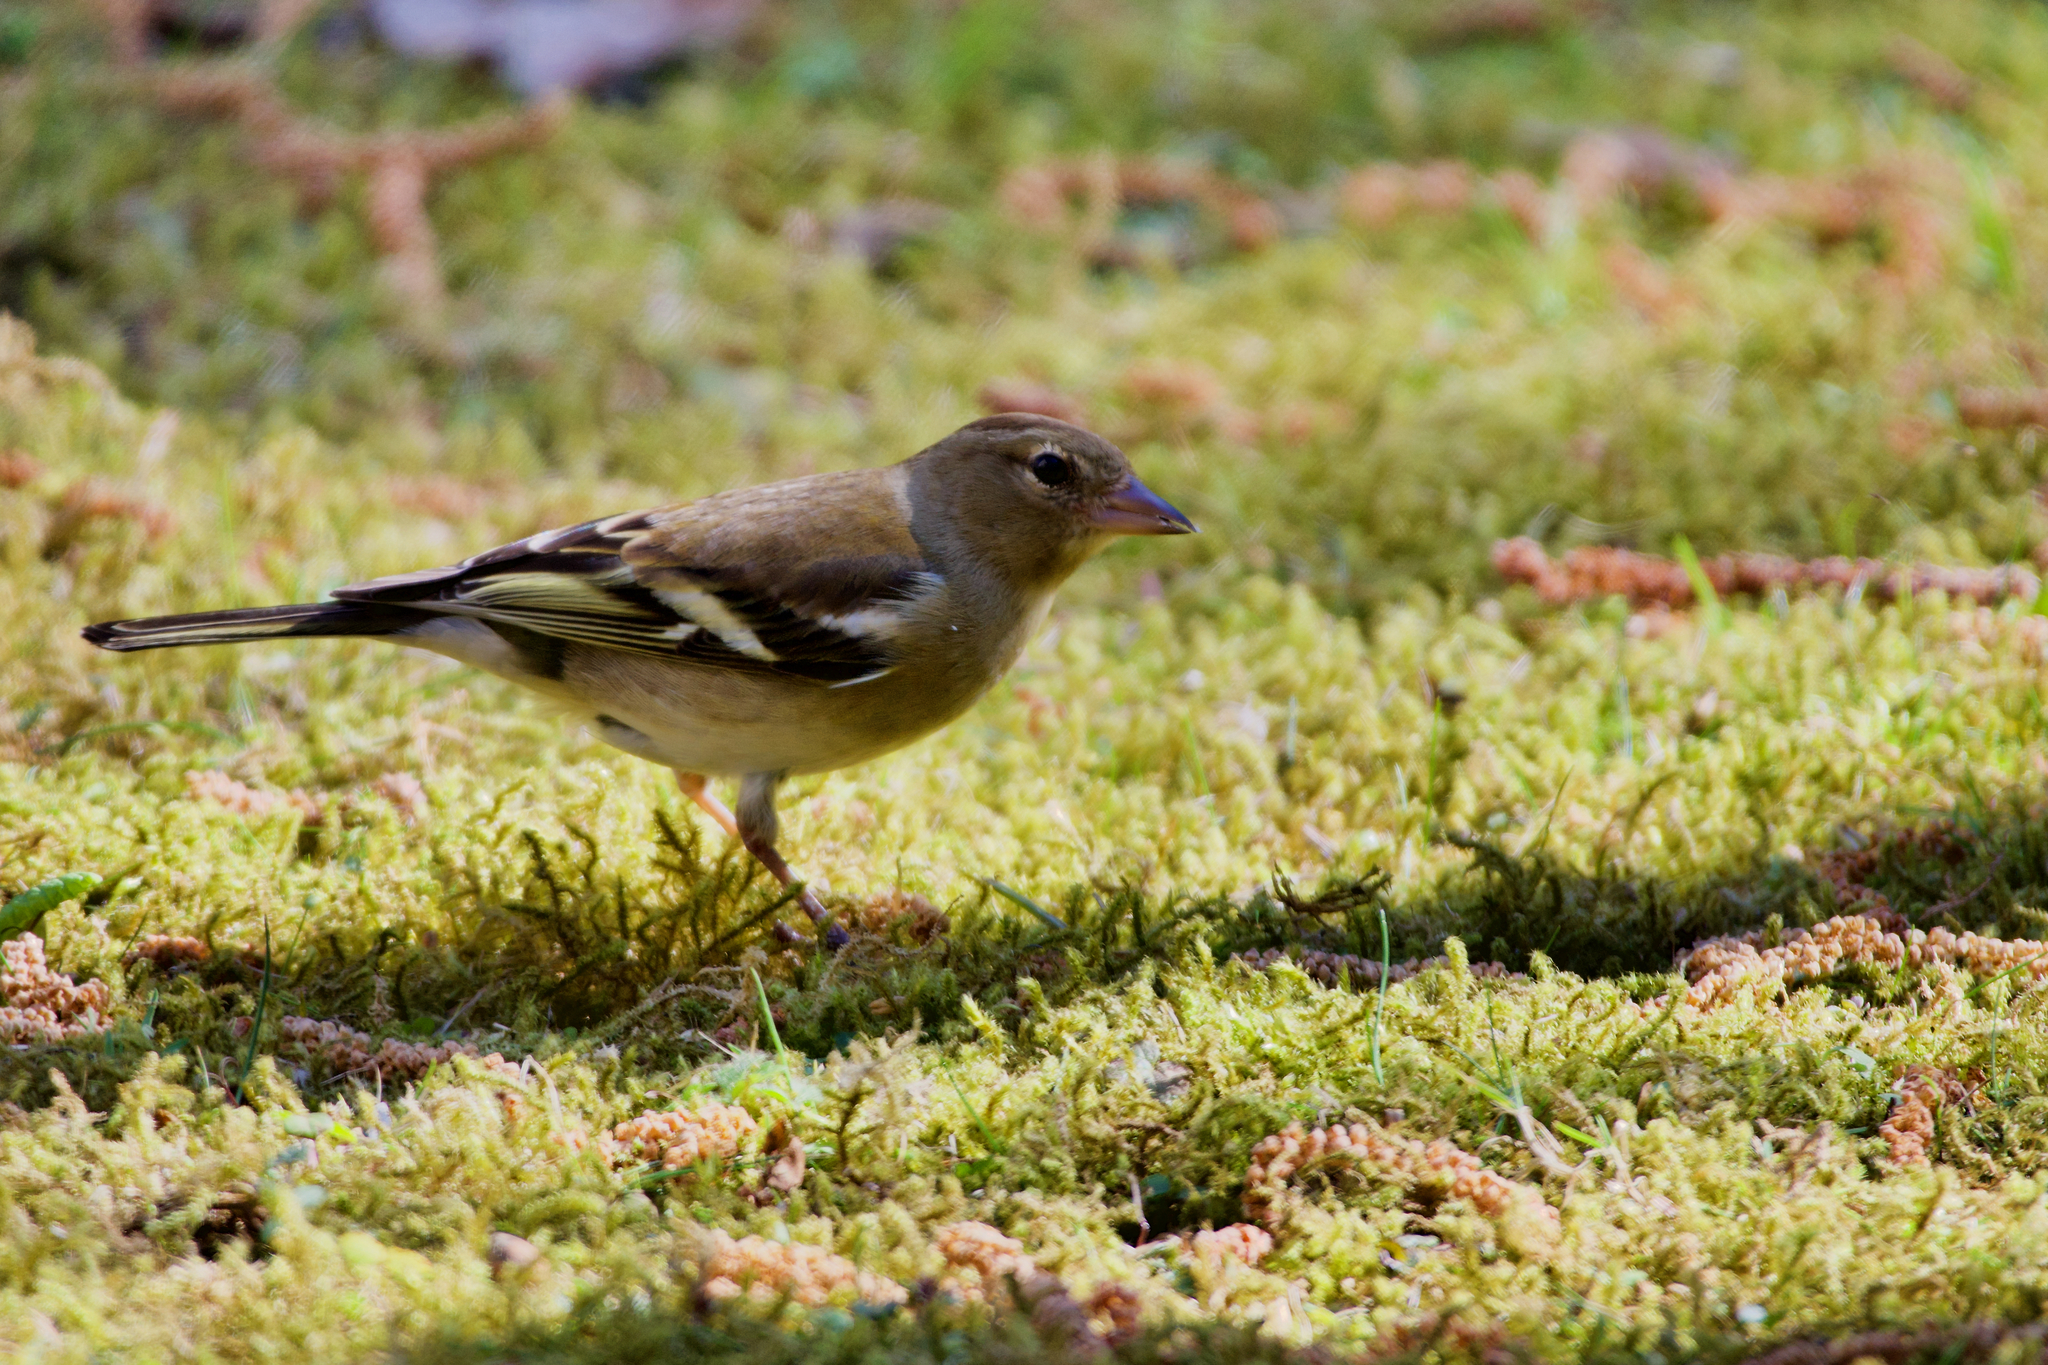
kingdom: Animalia
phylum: Chordata
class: Aves
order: Passeriformes
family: Fringillidae
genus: Fringilla
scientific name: Fringilla coelebs
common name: Common chaffinch
